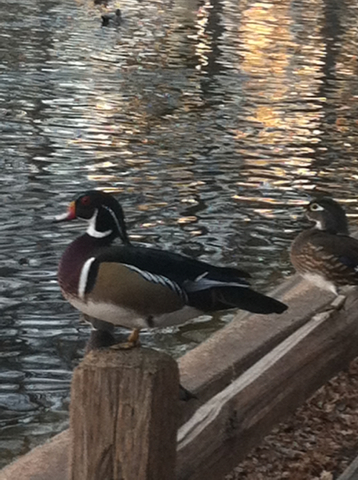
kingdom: Animalia
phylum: Chordata
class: Aves
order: Anseriformes
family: Anatidae
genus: Aix
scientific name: Aix sponsa
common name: Wood duck
